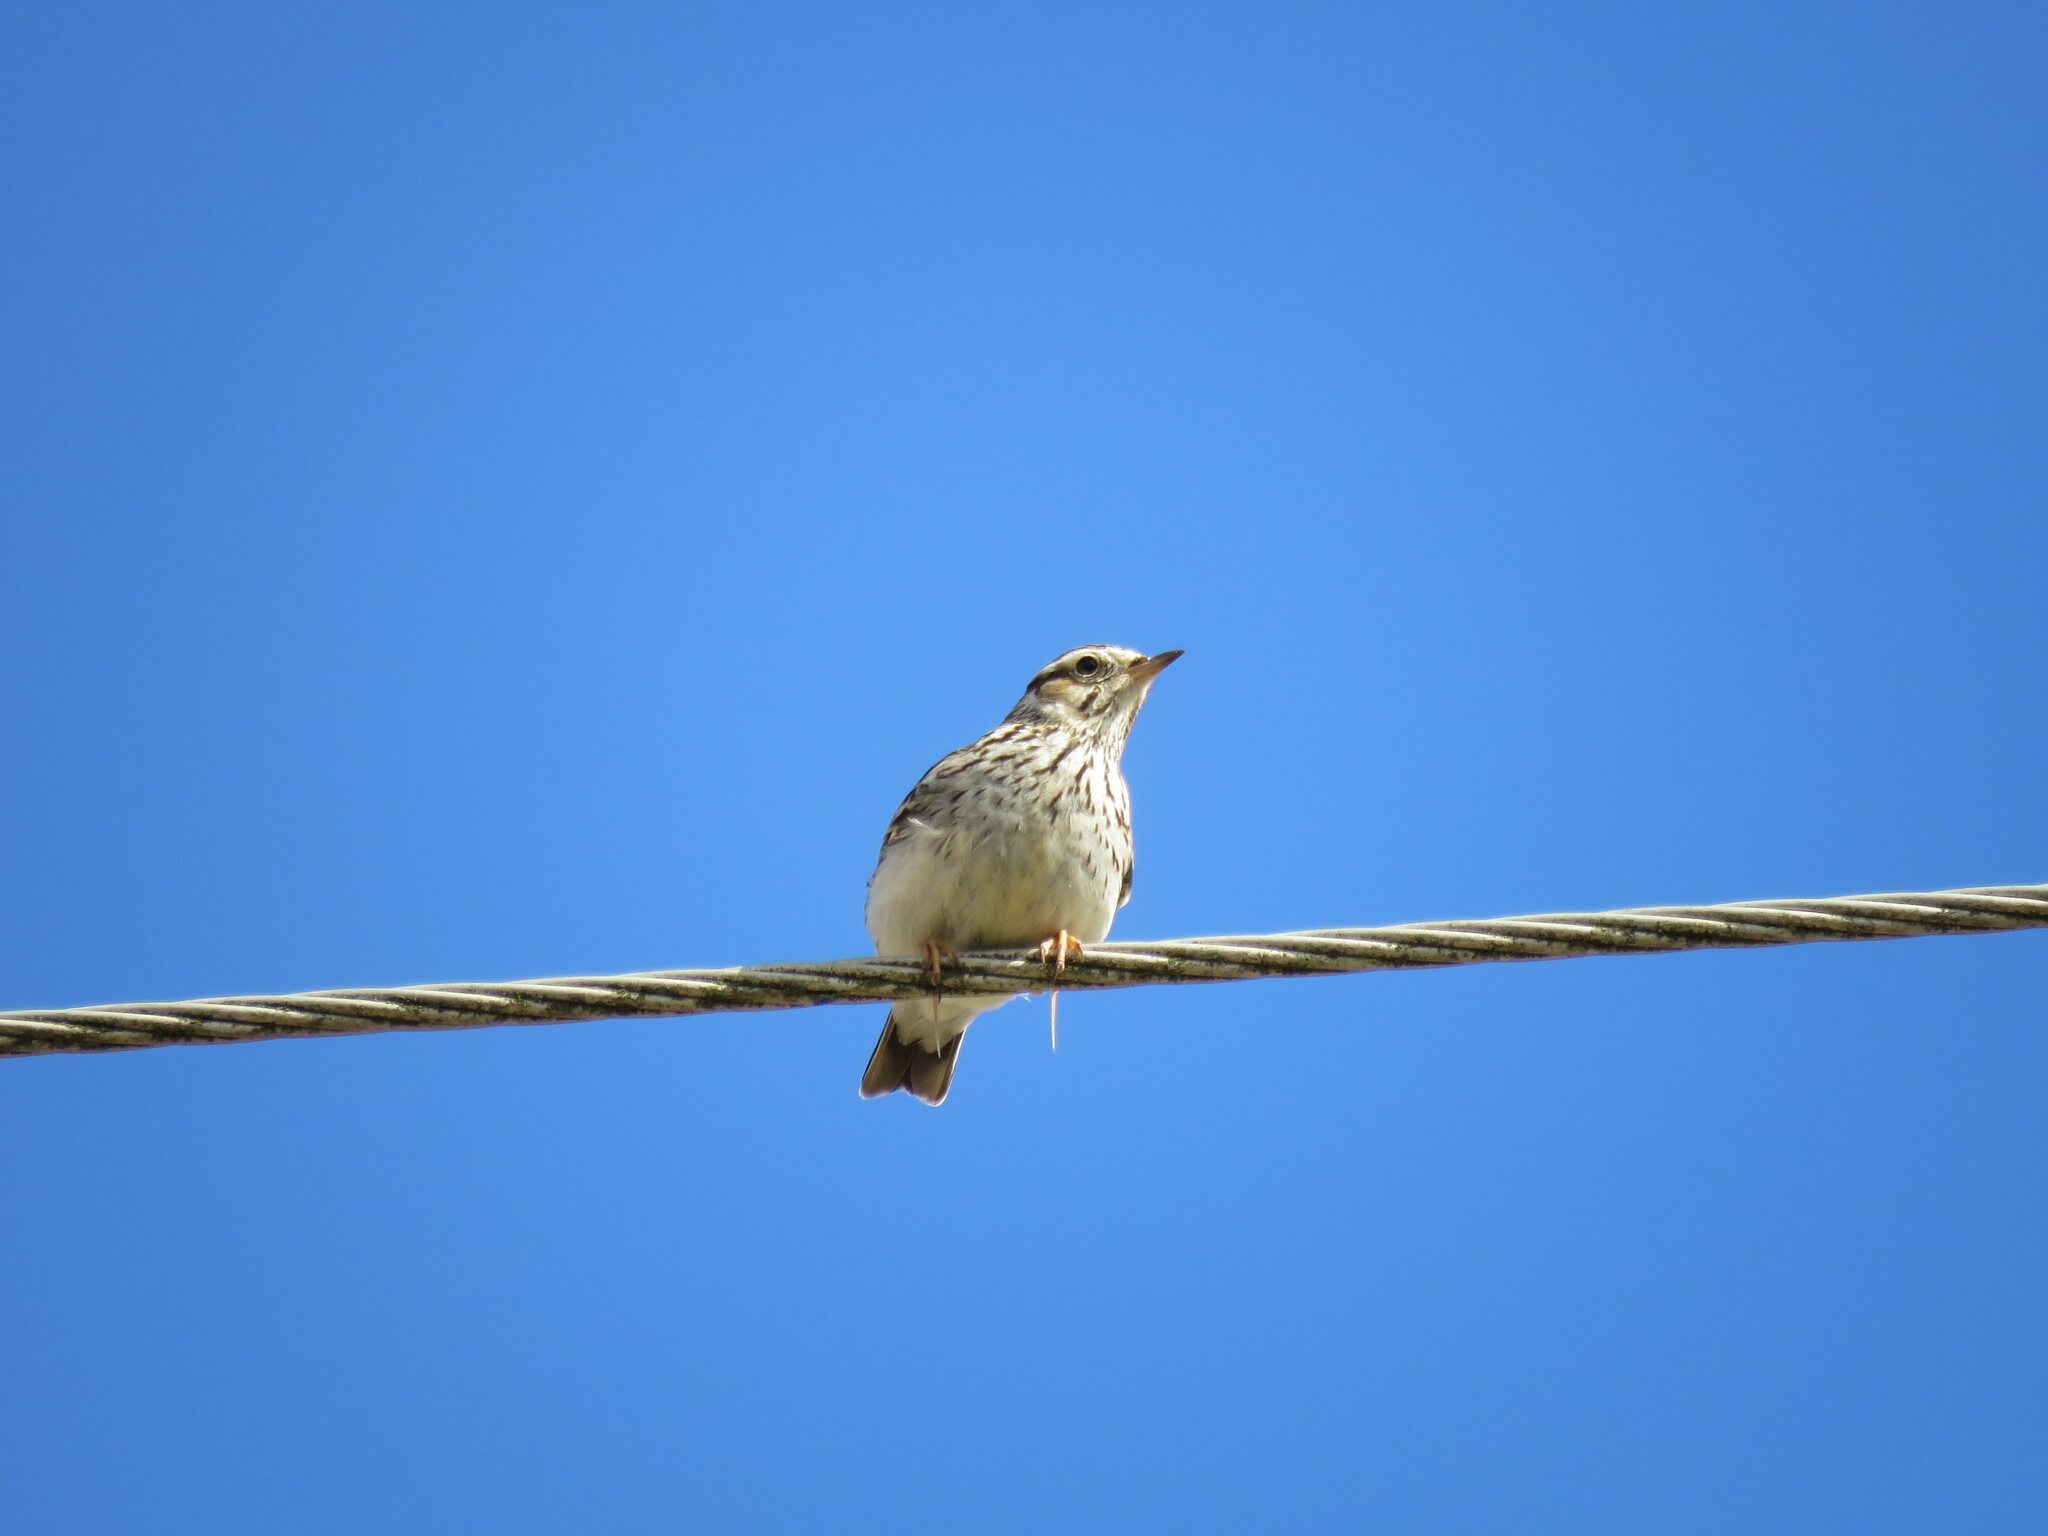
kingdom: Animalia
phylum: Chordata
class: Aves
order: Passeriformes
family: Alaudidae
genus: Lullula
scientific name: Lullula arborea
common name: Woodlark
